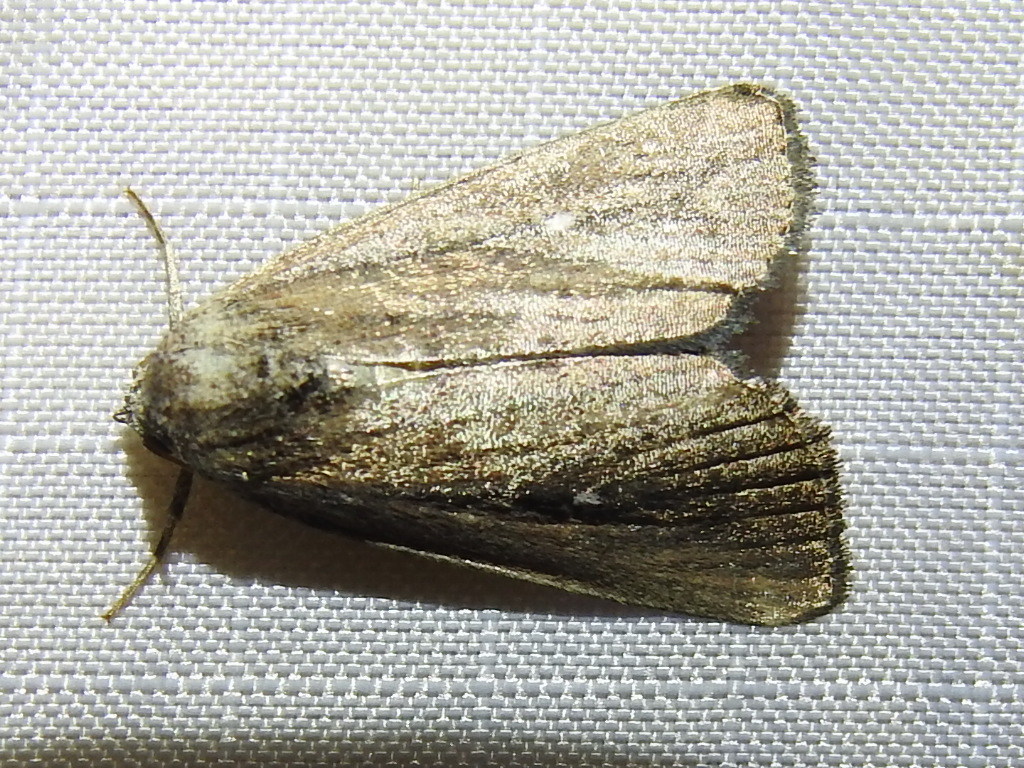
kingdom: Animalia
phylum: Arthropoda
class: Insecta
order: Lepidoptera
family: Noctuidae
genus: Condica
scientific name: Condica videns
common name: White-dotted groundling
